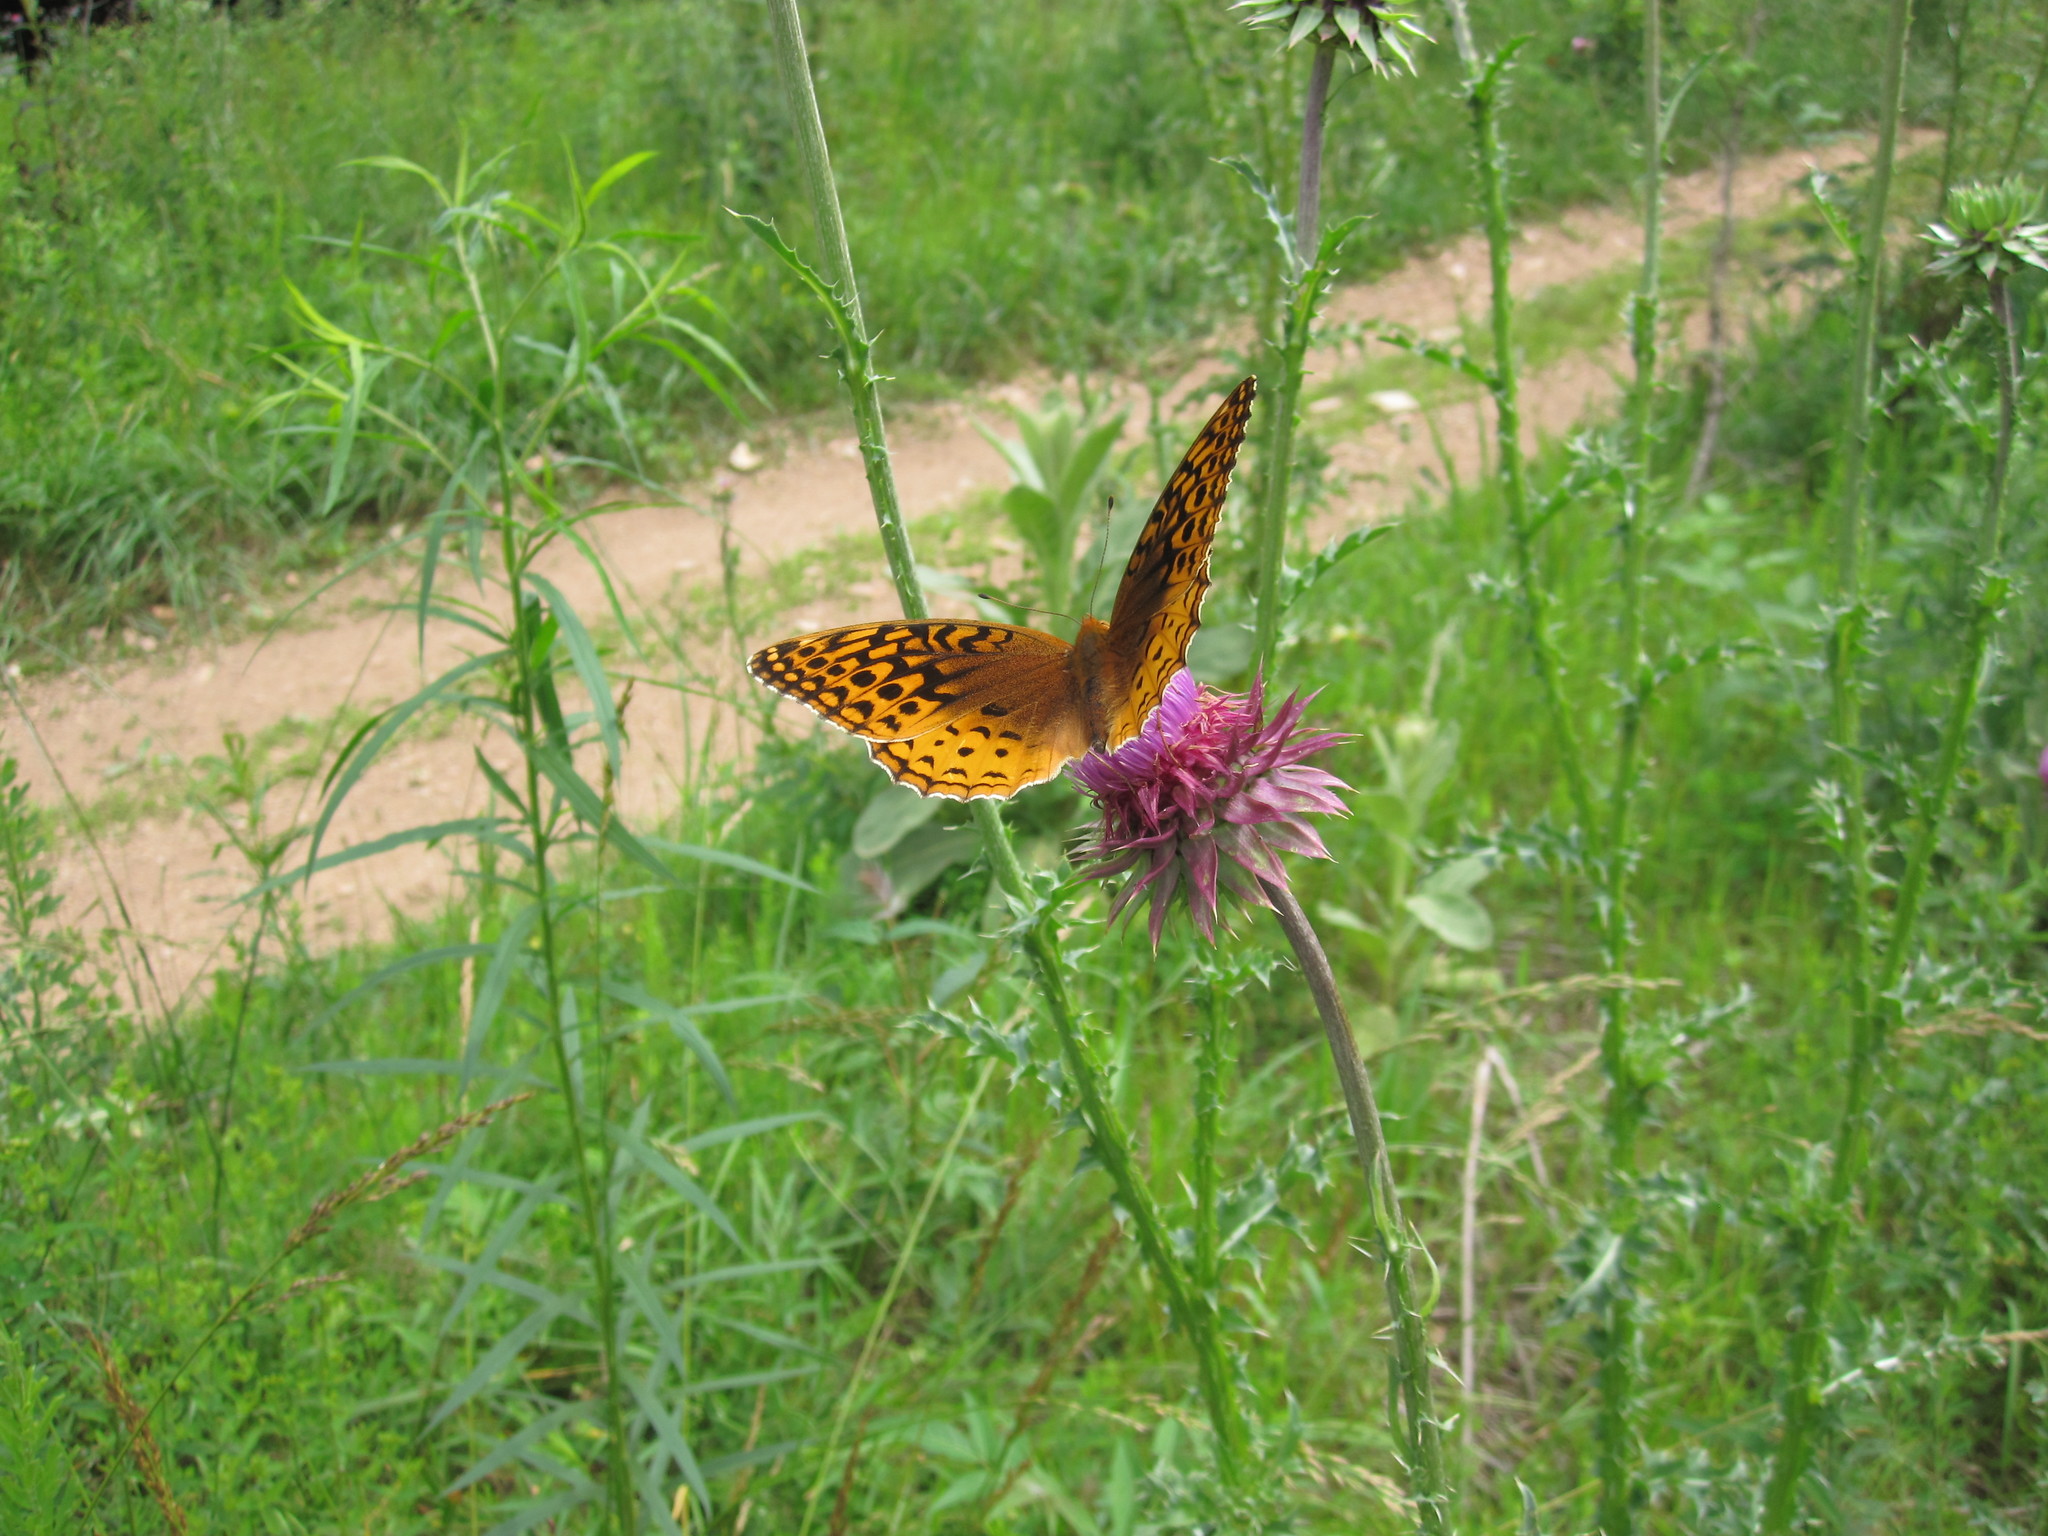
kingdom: Animalia
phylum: Arthropoda
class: Insecta
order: Lepidoptera
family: Nymphalidae
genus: Speyeria
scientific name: Speyeria cybele
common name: Great spangled fritillary
